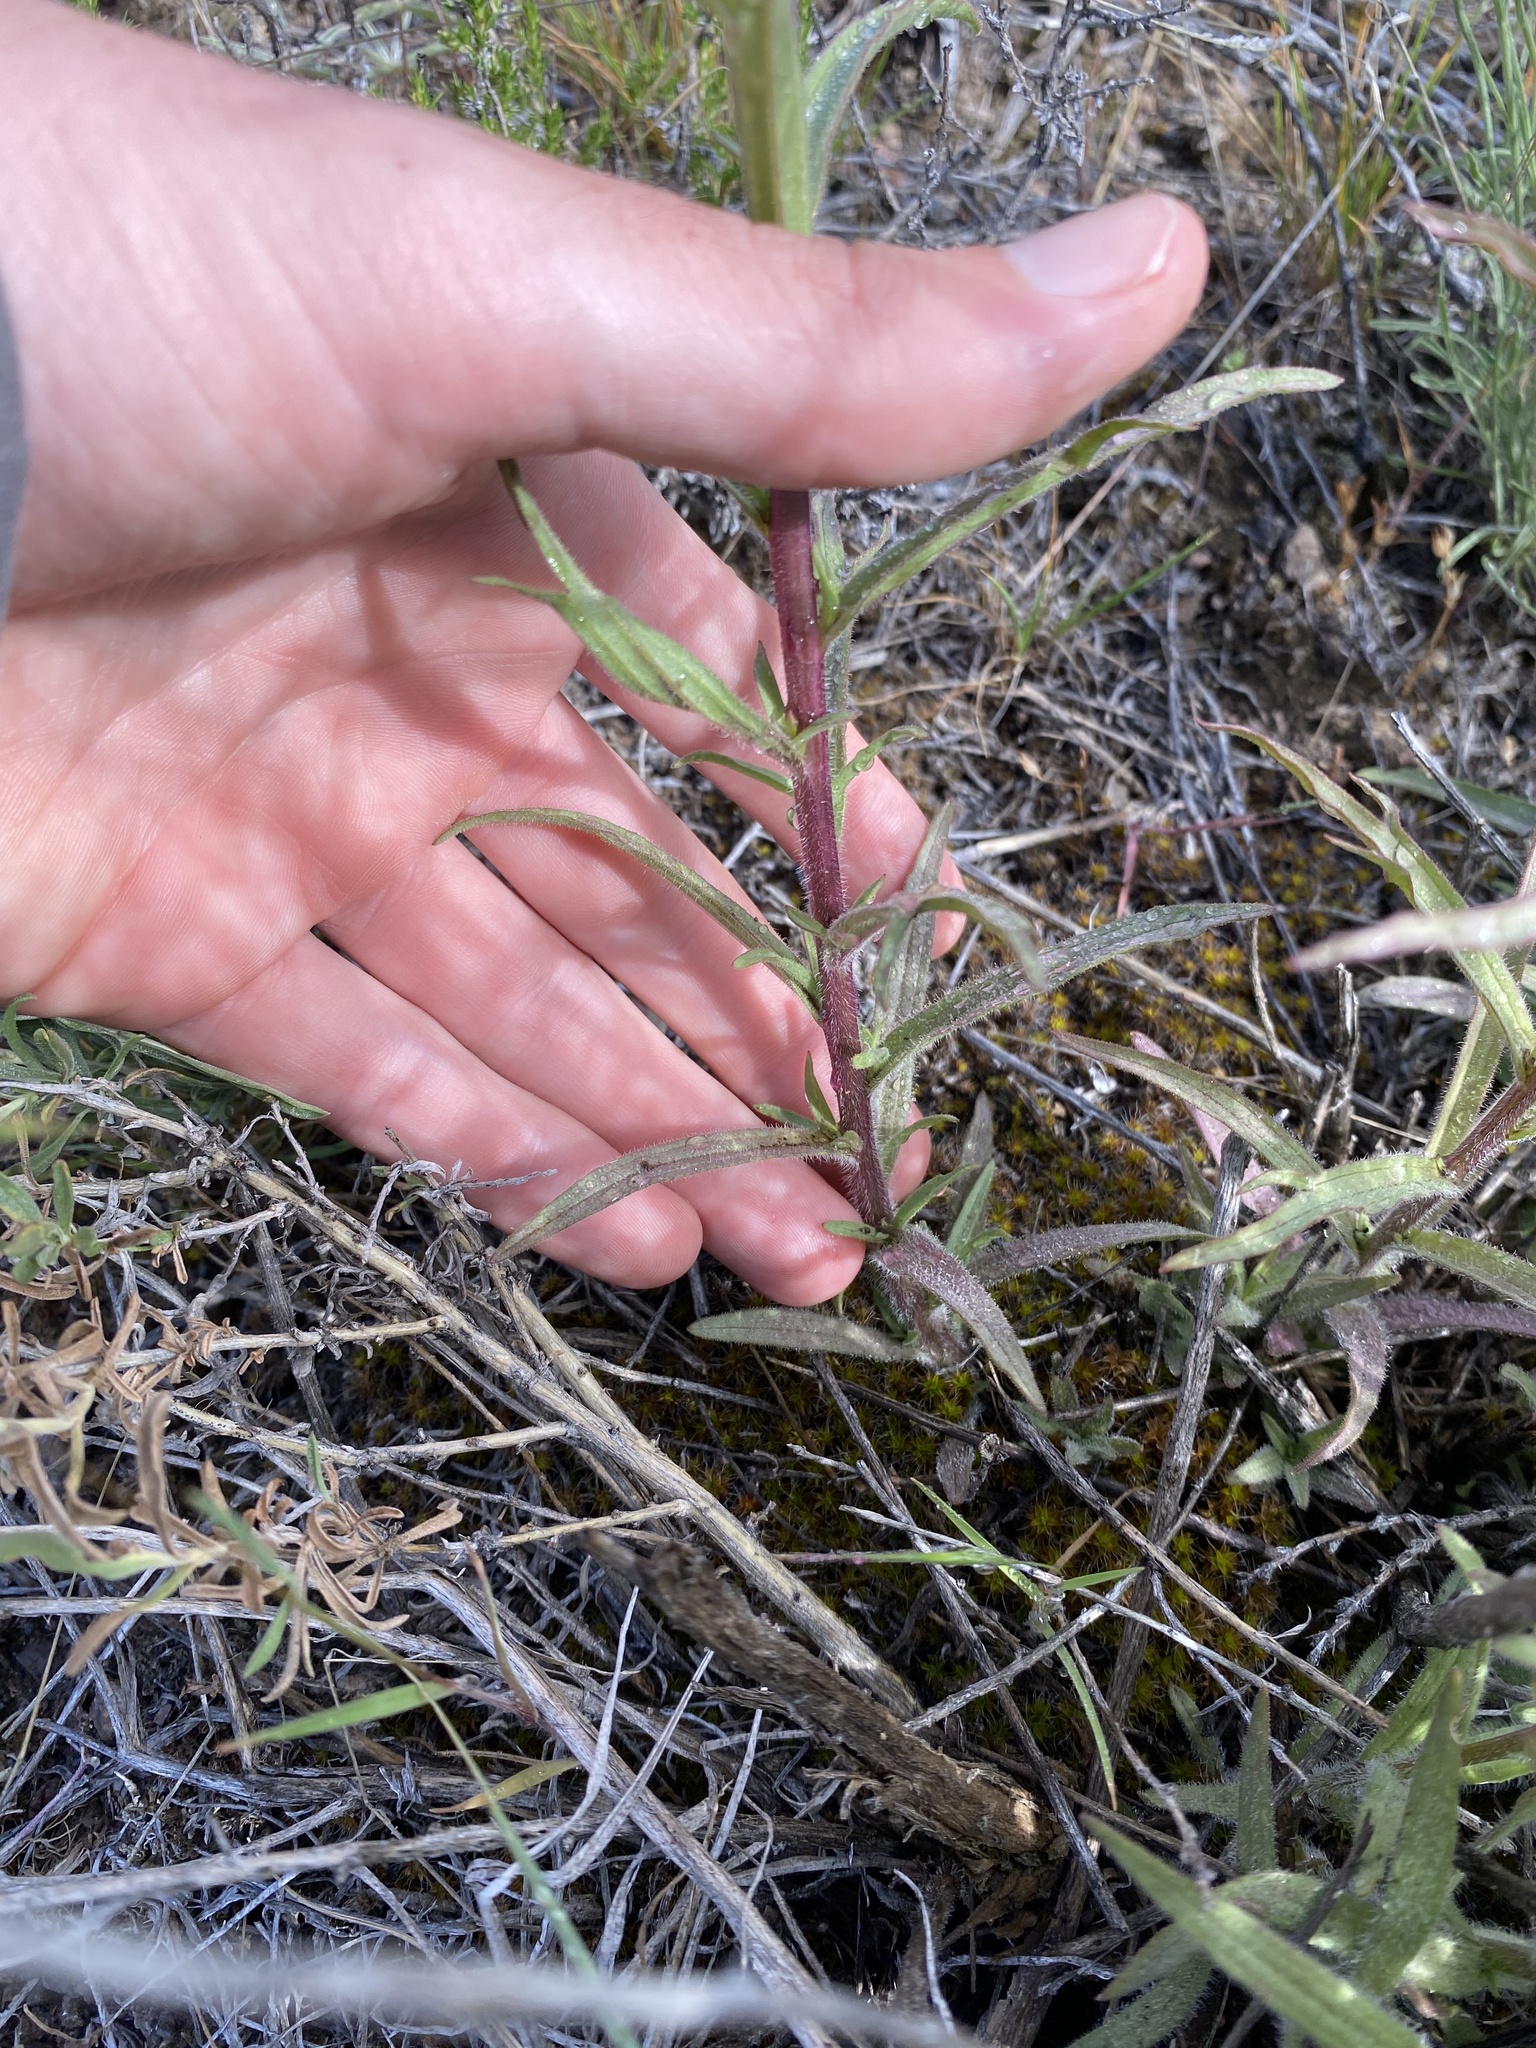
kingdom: Plantae
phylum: Tracheophyta
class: Magnoliopsida
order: Lamiales
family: Orobanchaceae
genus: Castilleja
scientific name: Castilleja hispida
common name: Bristly paintbrush
